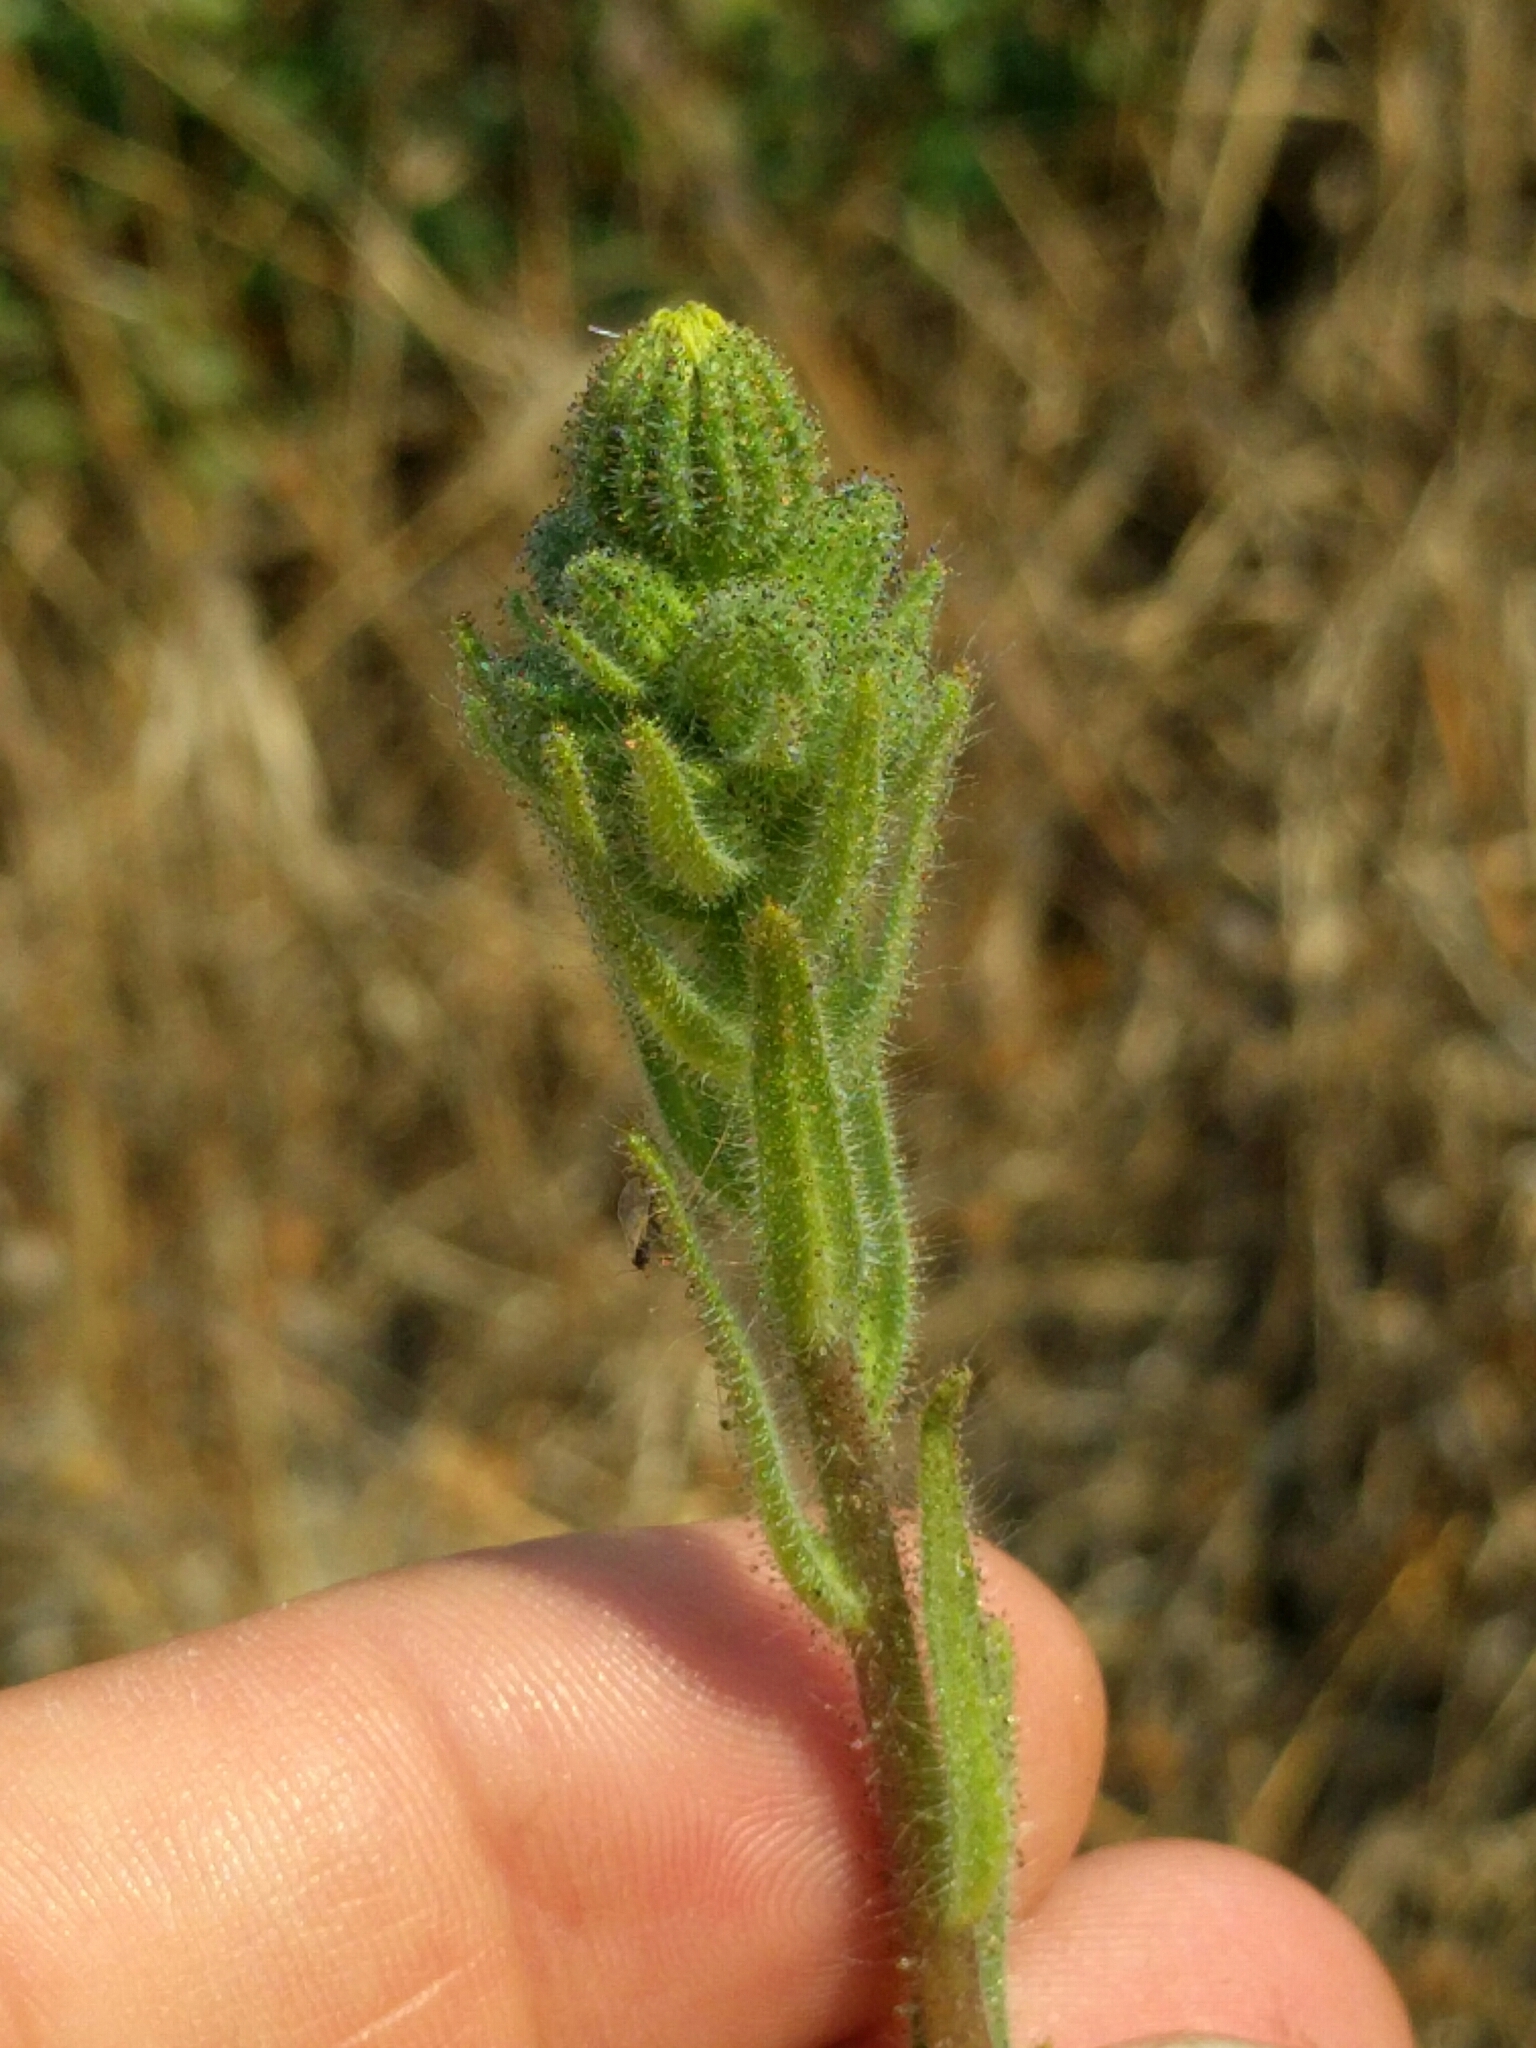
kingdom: Plantae
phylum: Tracheophyta
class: Magnoliopsida
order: Asterales
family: Asteraceae
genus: Madia
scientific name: Madia sativa
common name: Coast tarweed
